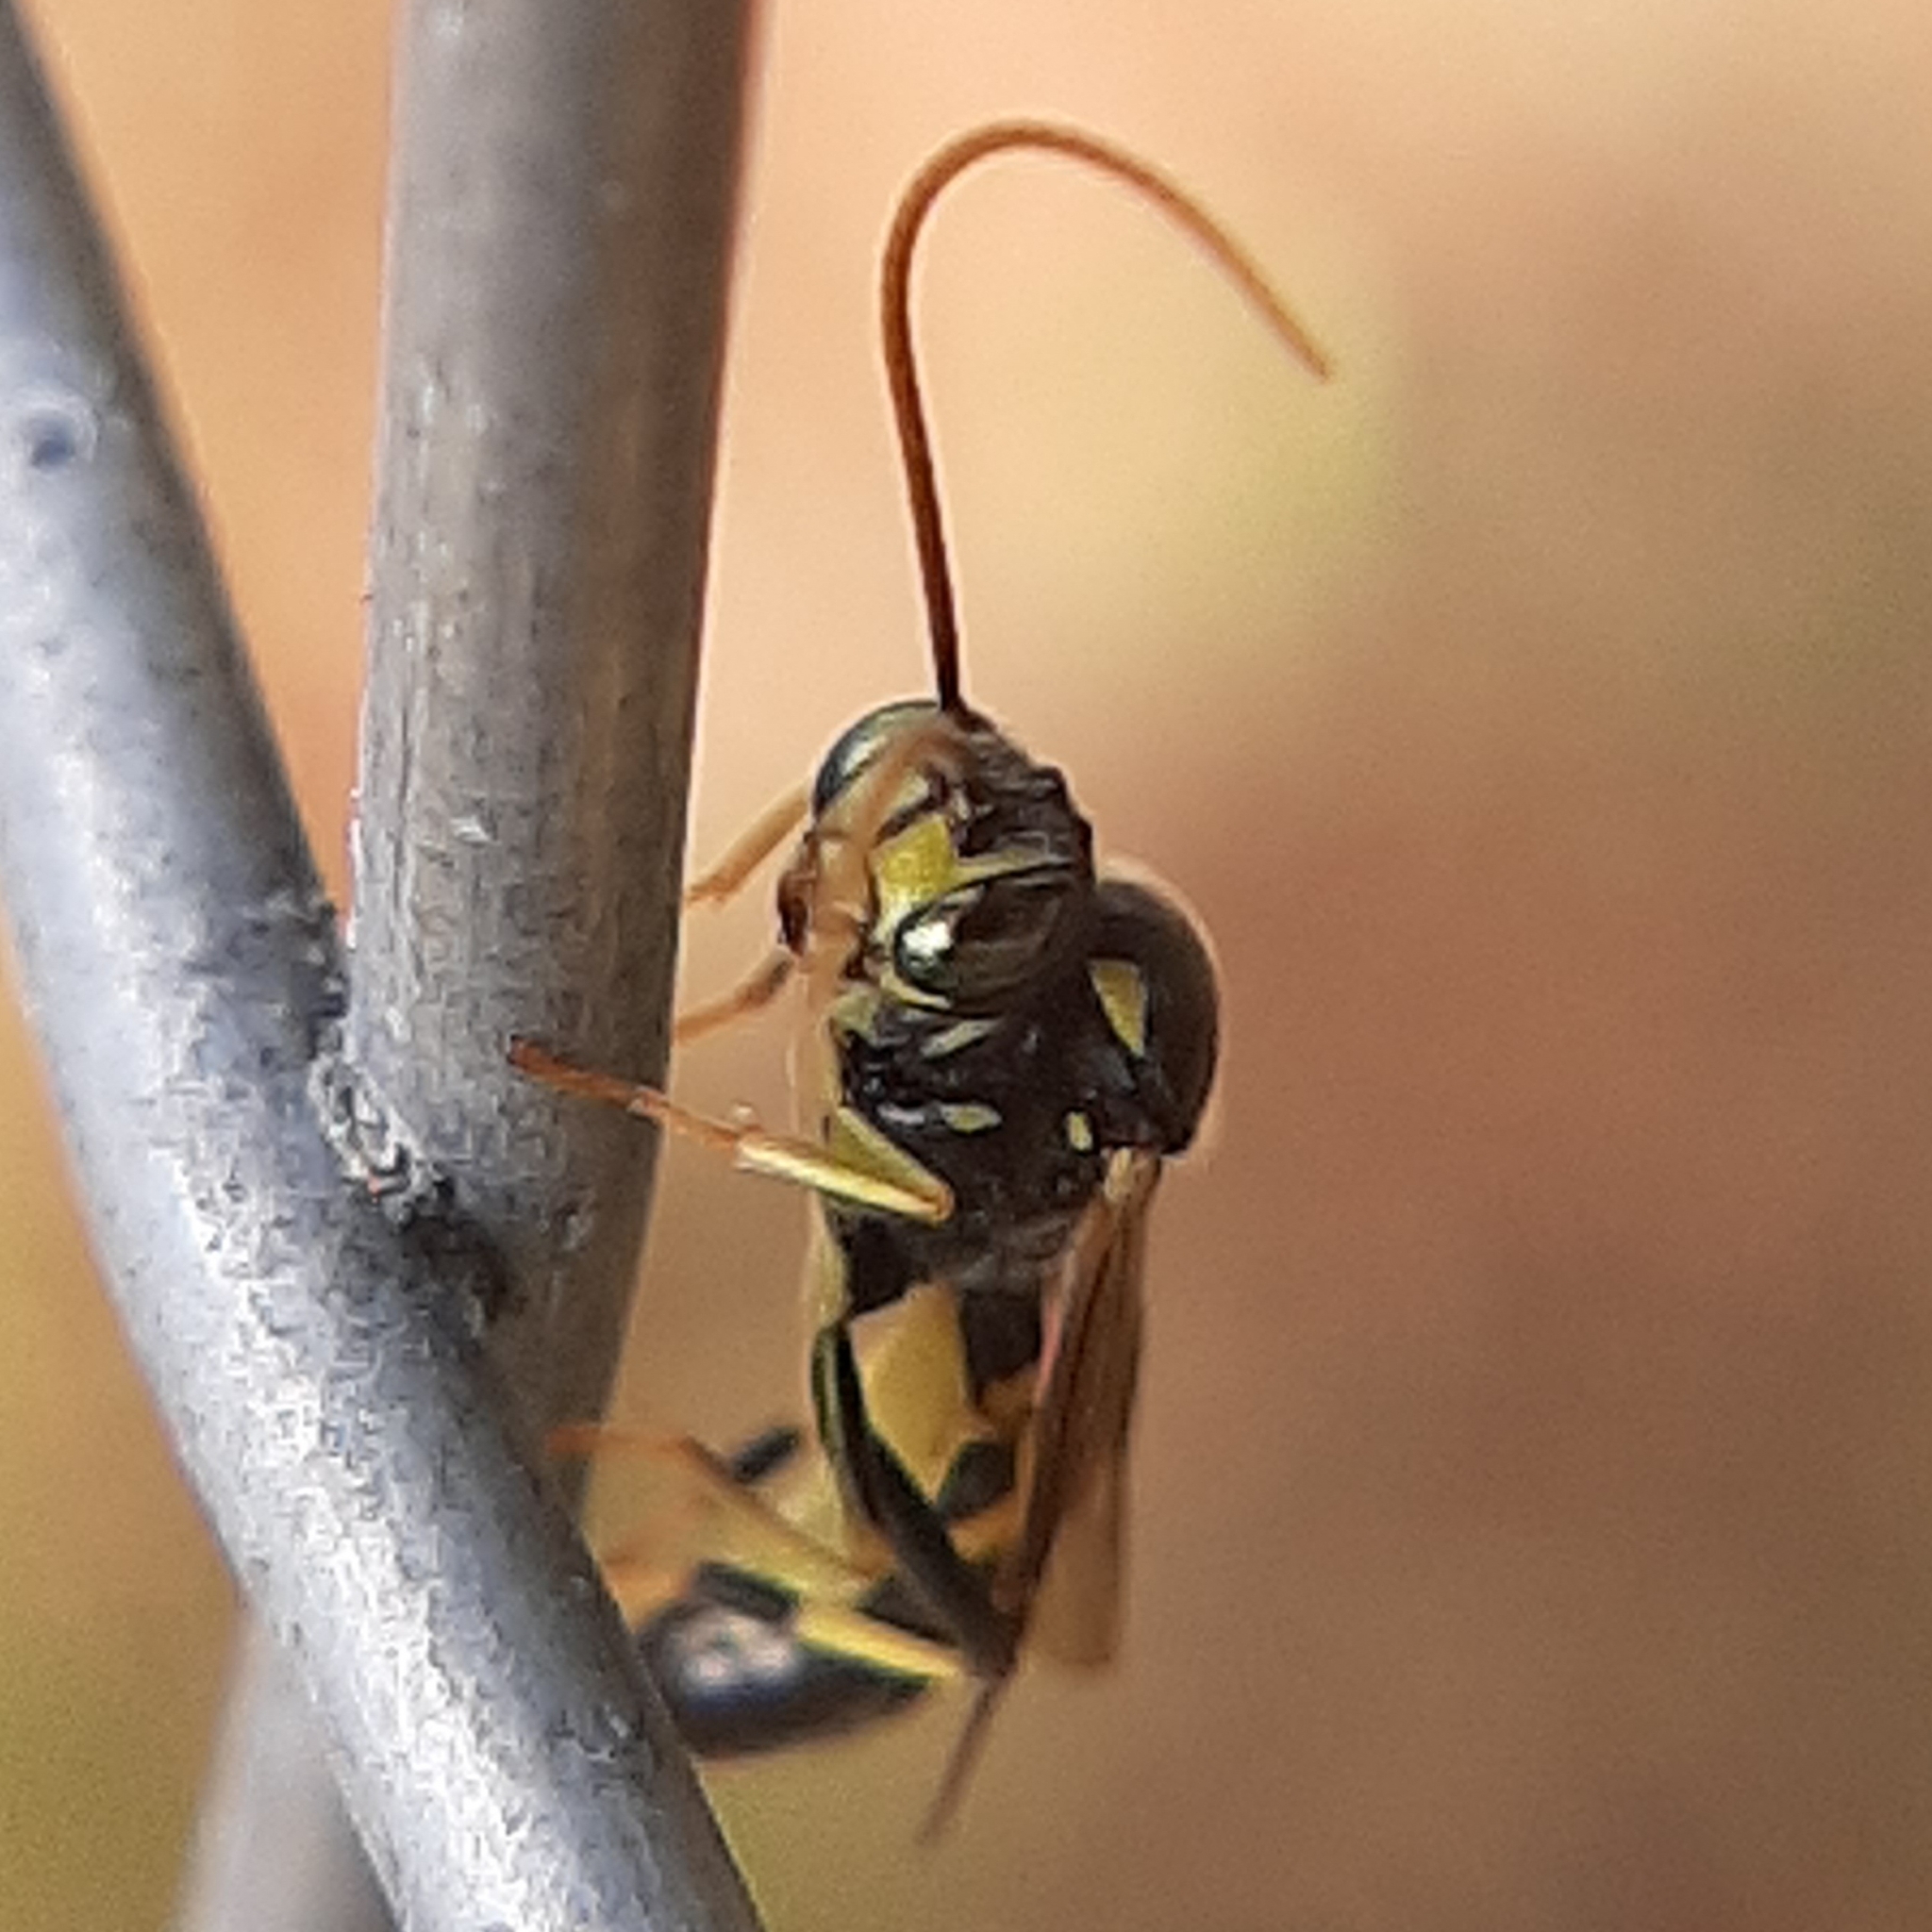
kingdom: Animalia
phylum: Arthropoda
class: Insecta
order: Hymenoptera
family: Ichneumonidae
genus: Exenterus
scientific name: Exenterus amictorius
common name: Ichneumonid wasp
